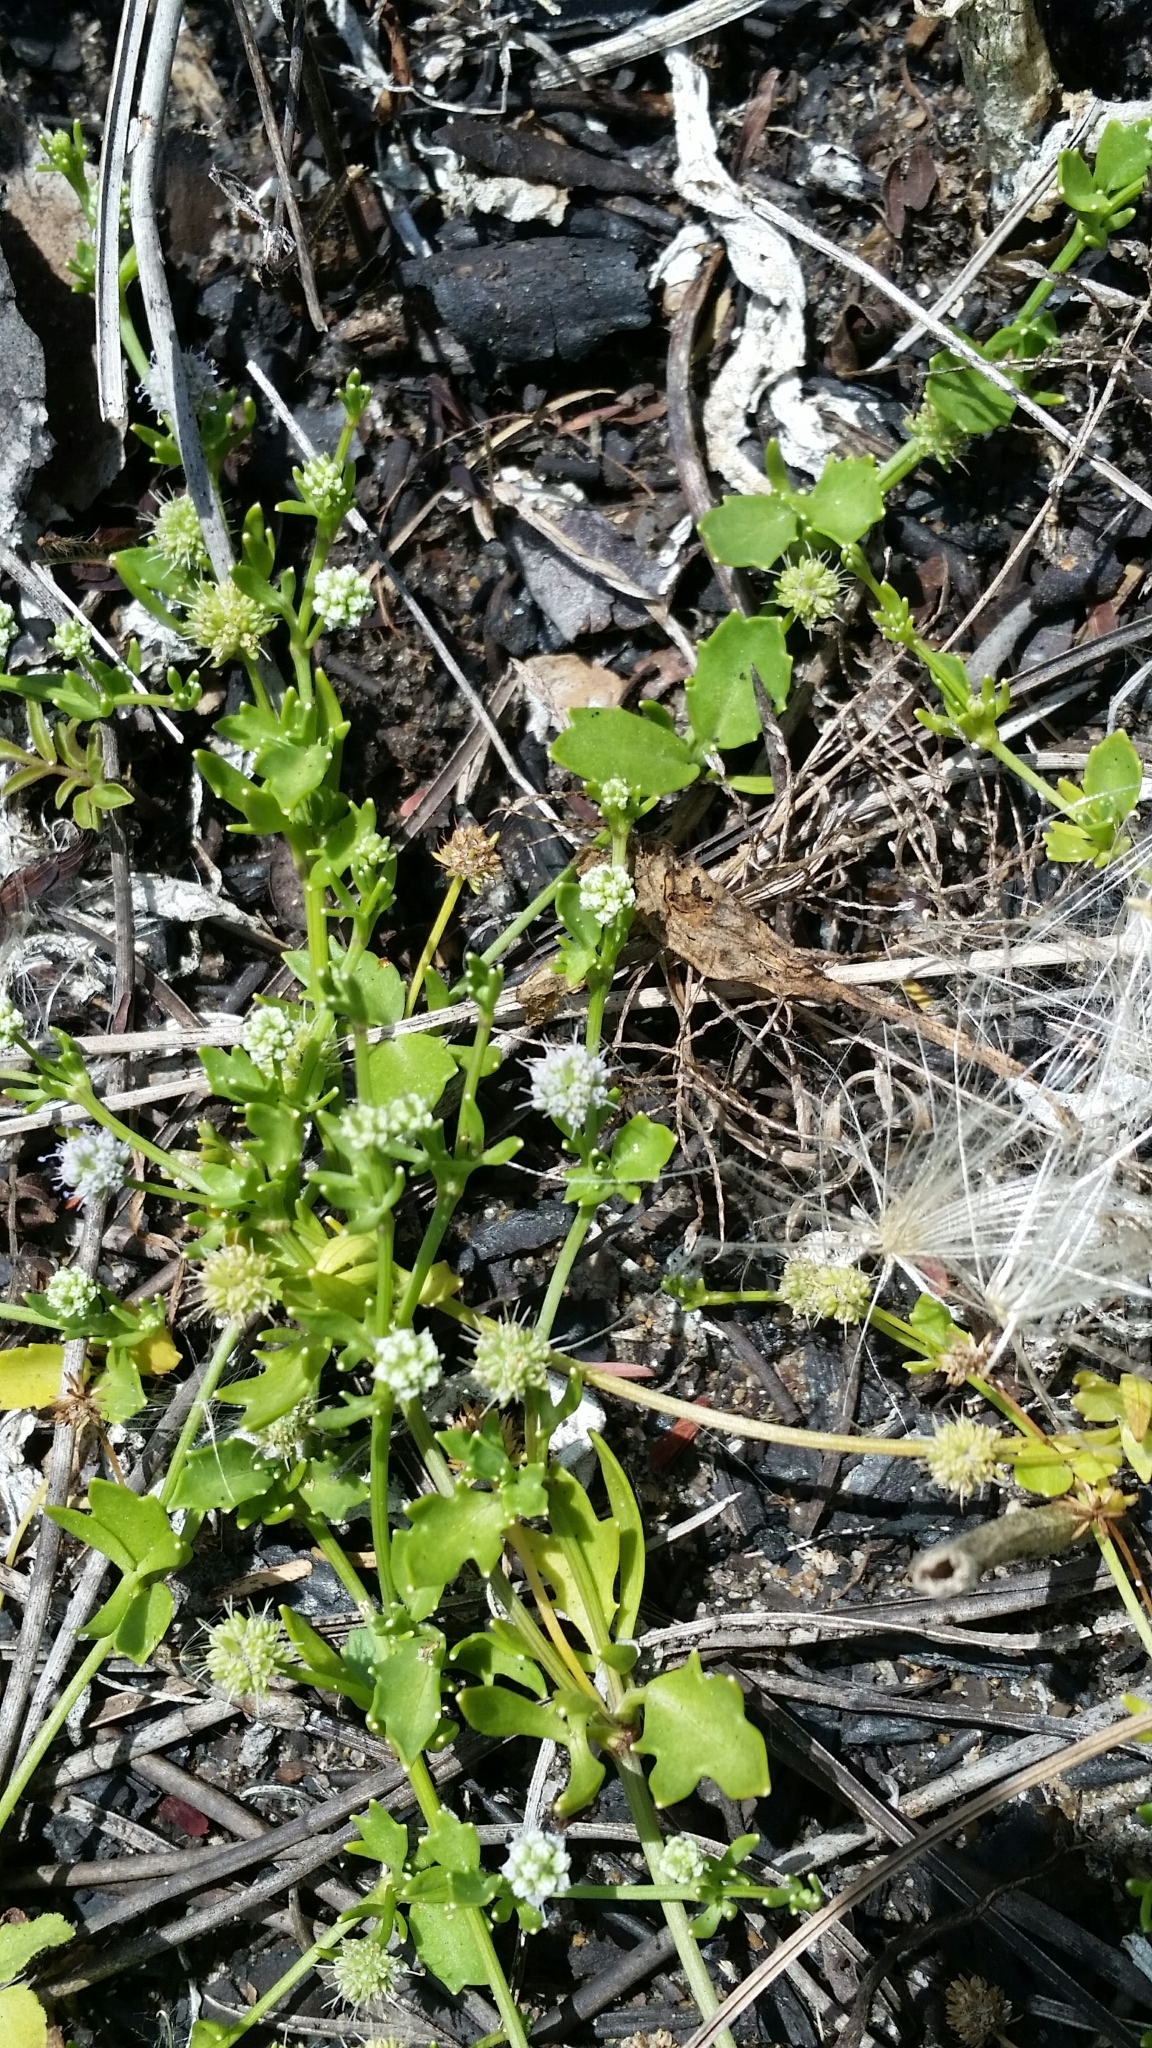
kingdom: Plantae
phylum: Tracheophyta
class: Magnoliopsida
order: Apiales
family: Apiaceae
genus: Eryngium
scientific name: Eryngium baldwinii
